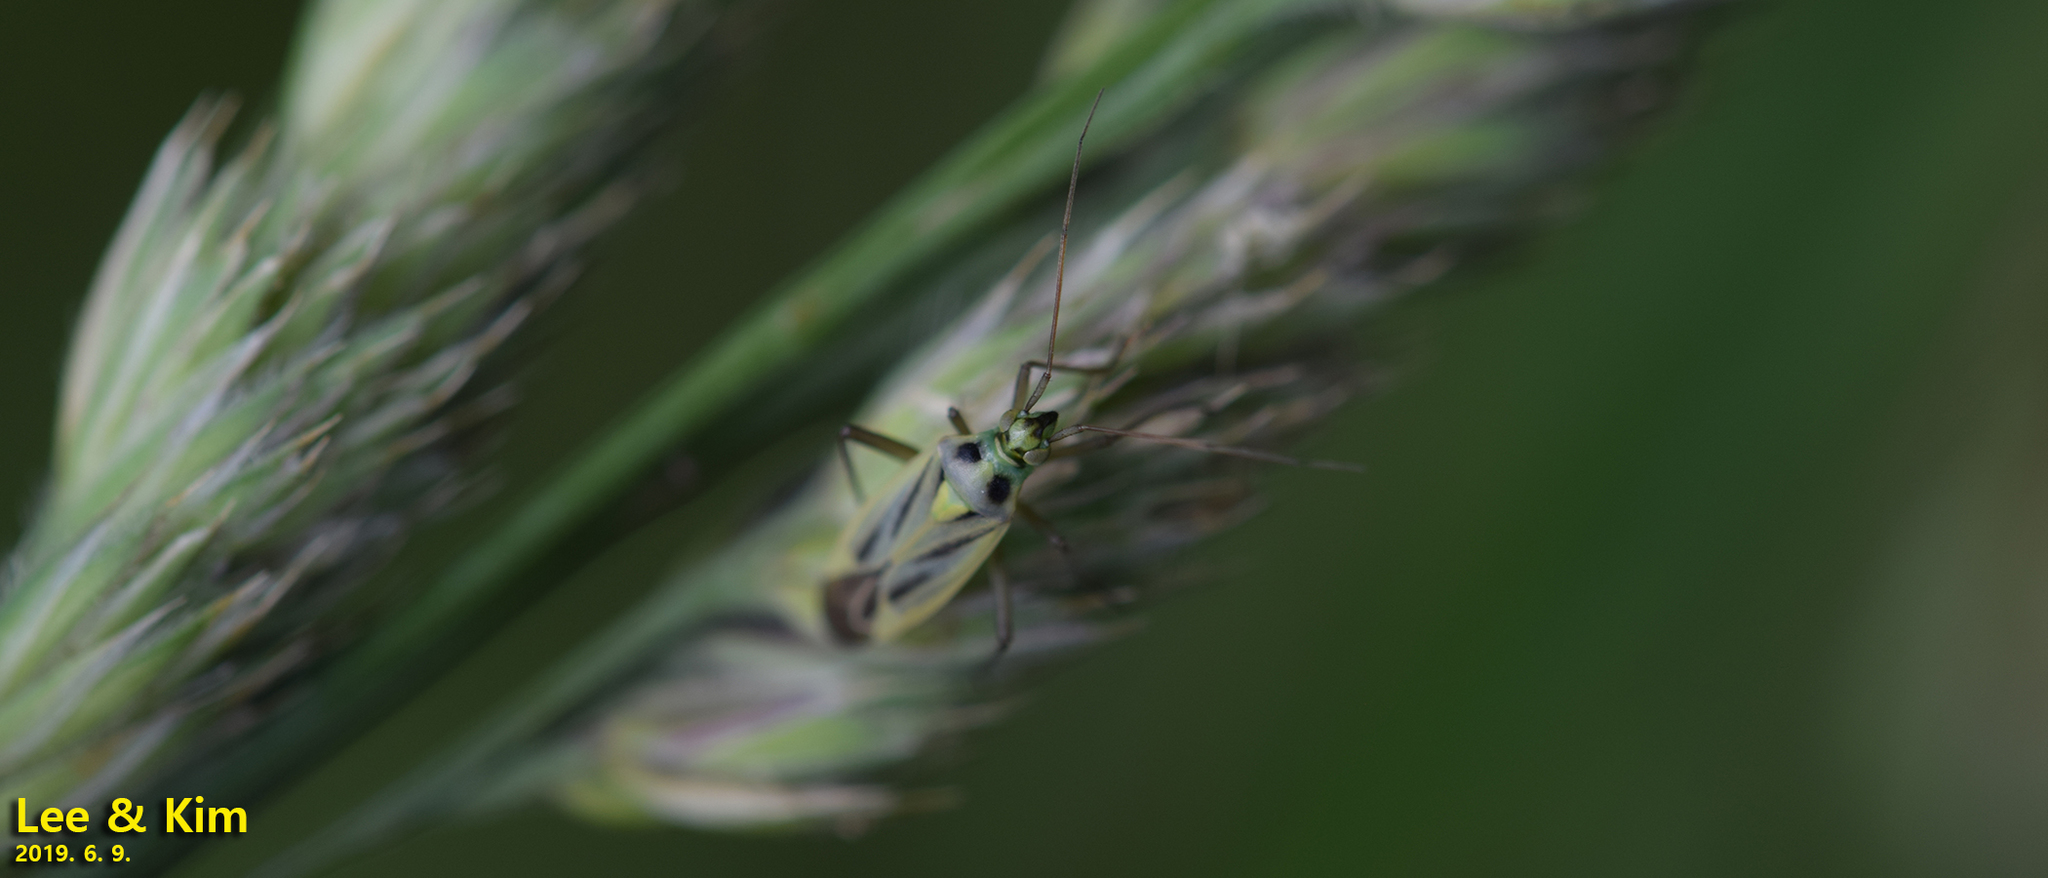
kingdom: Animalia
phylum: Arthropoda
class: Insecta
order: Hemiptera
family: Miridae
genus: Stenotus
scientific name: Stenotus binotatus
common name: Plant bug
